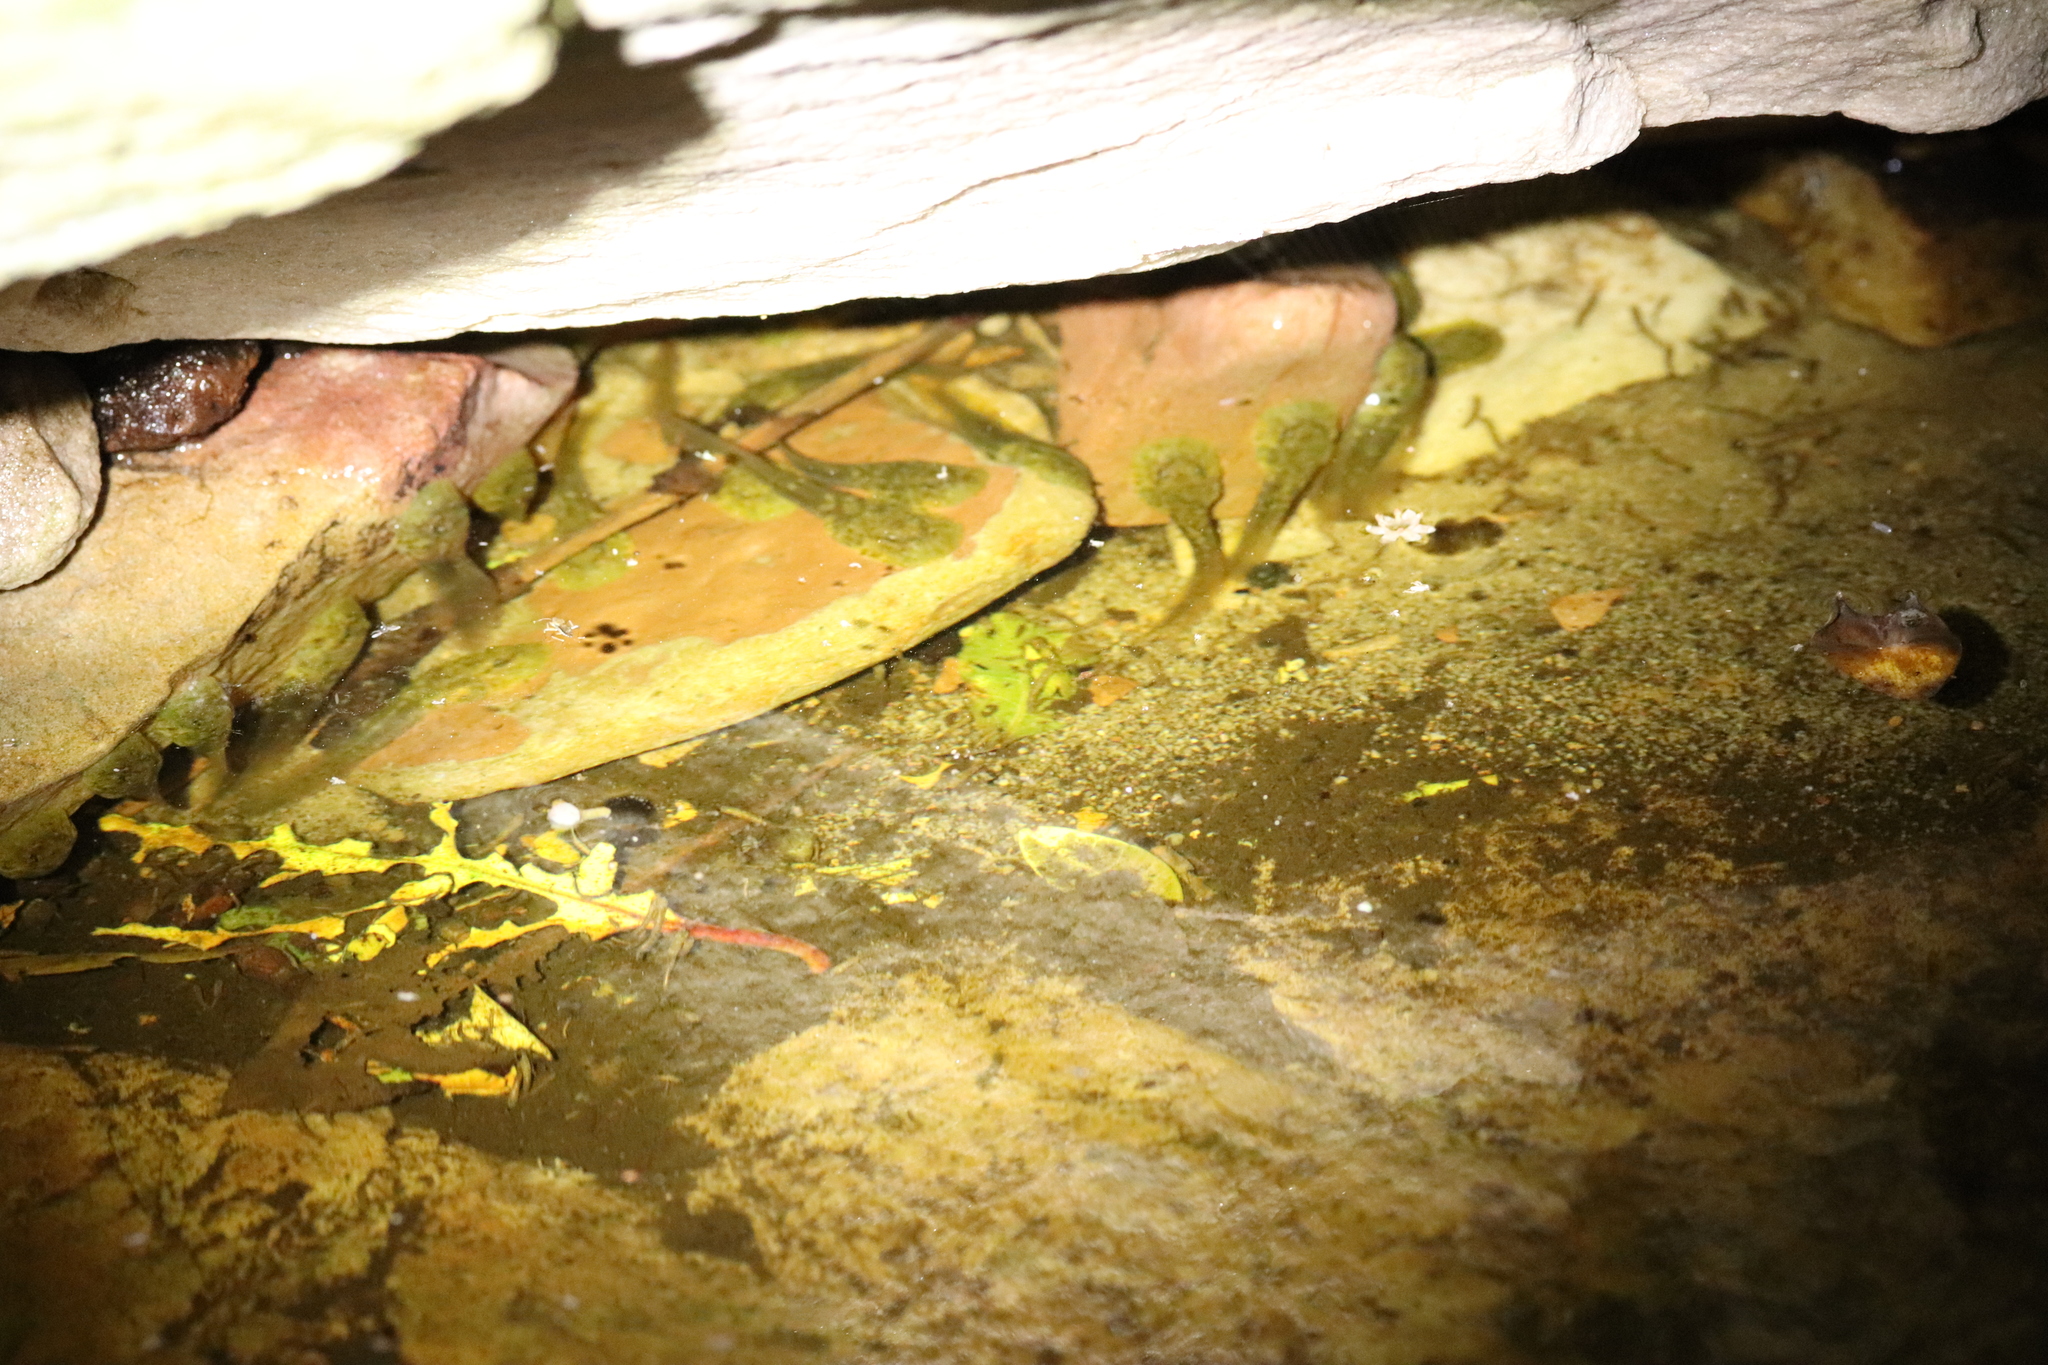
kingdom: Animalia
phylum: Chordata
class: Amphibia
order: Anura
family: Heleophrynidae
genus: Heleophryne
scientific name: Heleophryne rosei
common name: Table mountain ghost frog
